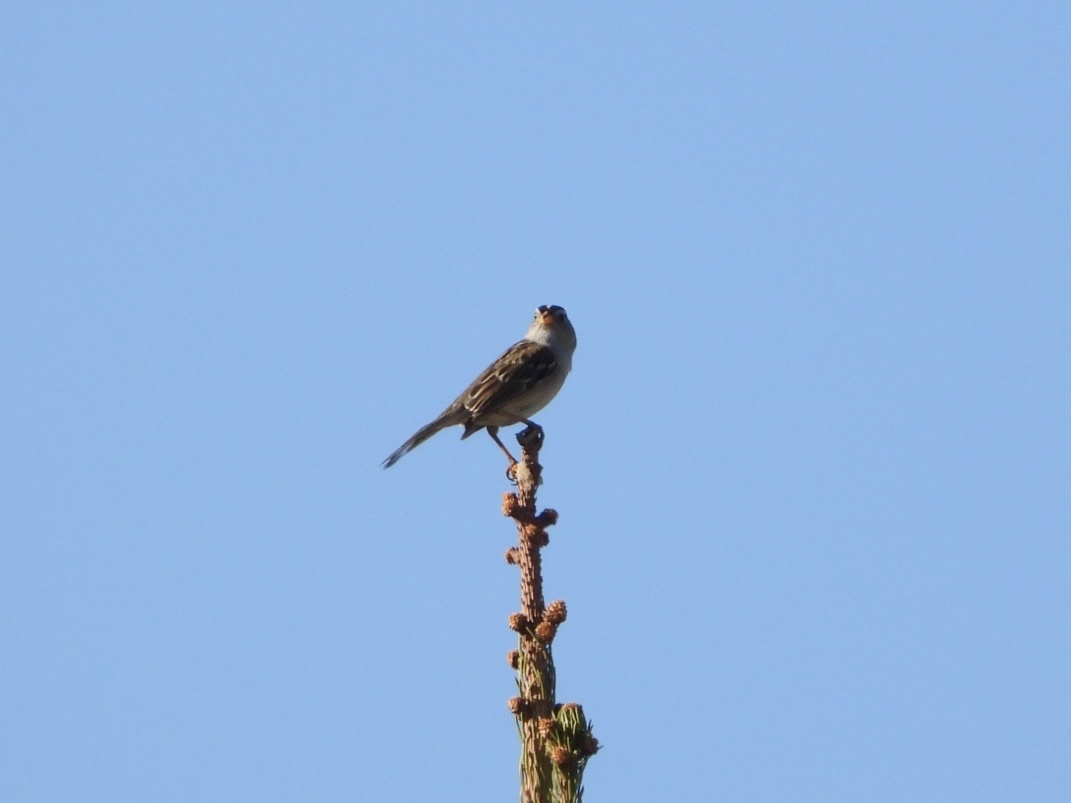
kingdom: Animalia
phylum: Chordata
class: Aves
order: Passeriformes
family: Passerellidae
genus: Zonotrichia
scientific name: Zonotrichia leucophrys
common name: White-crowned sparrow
